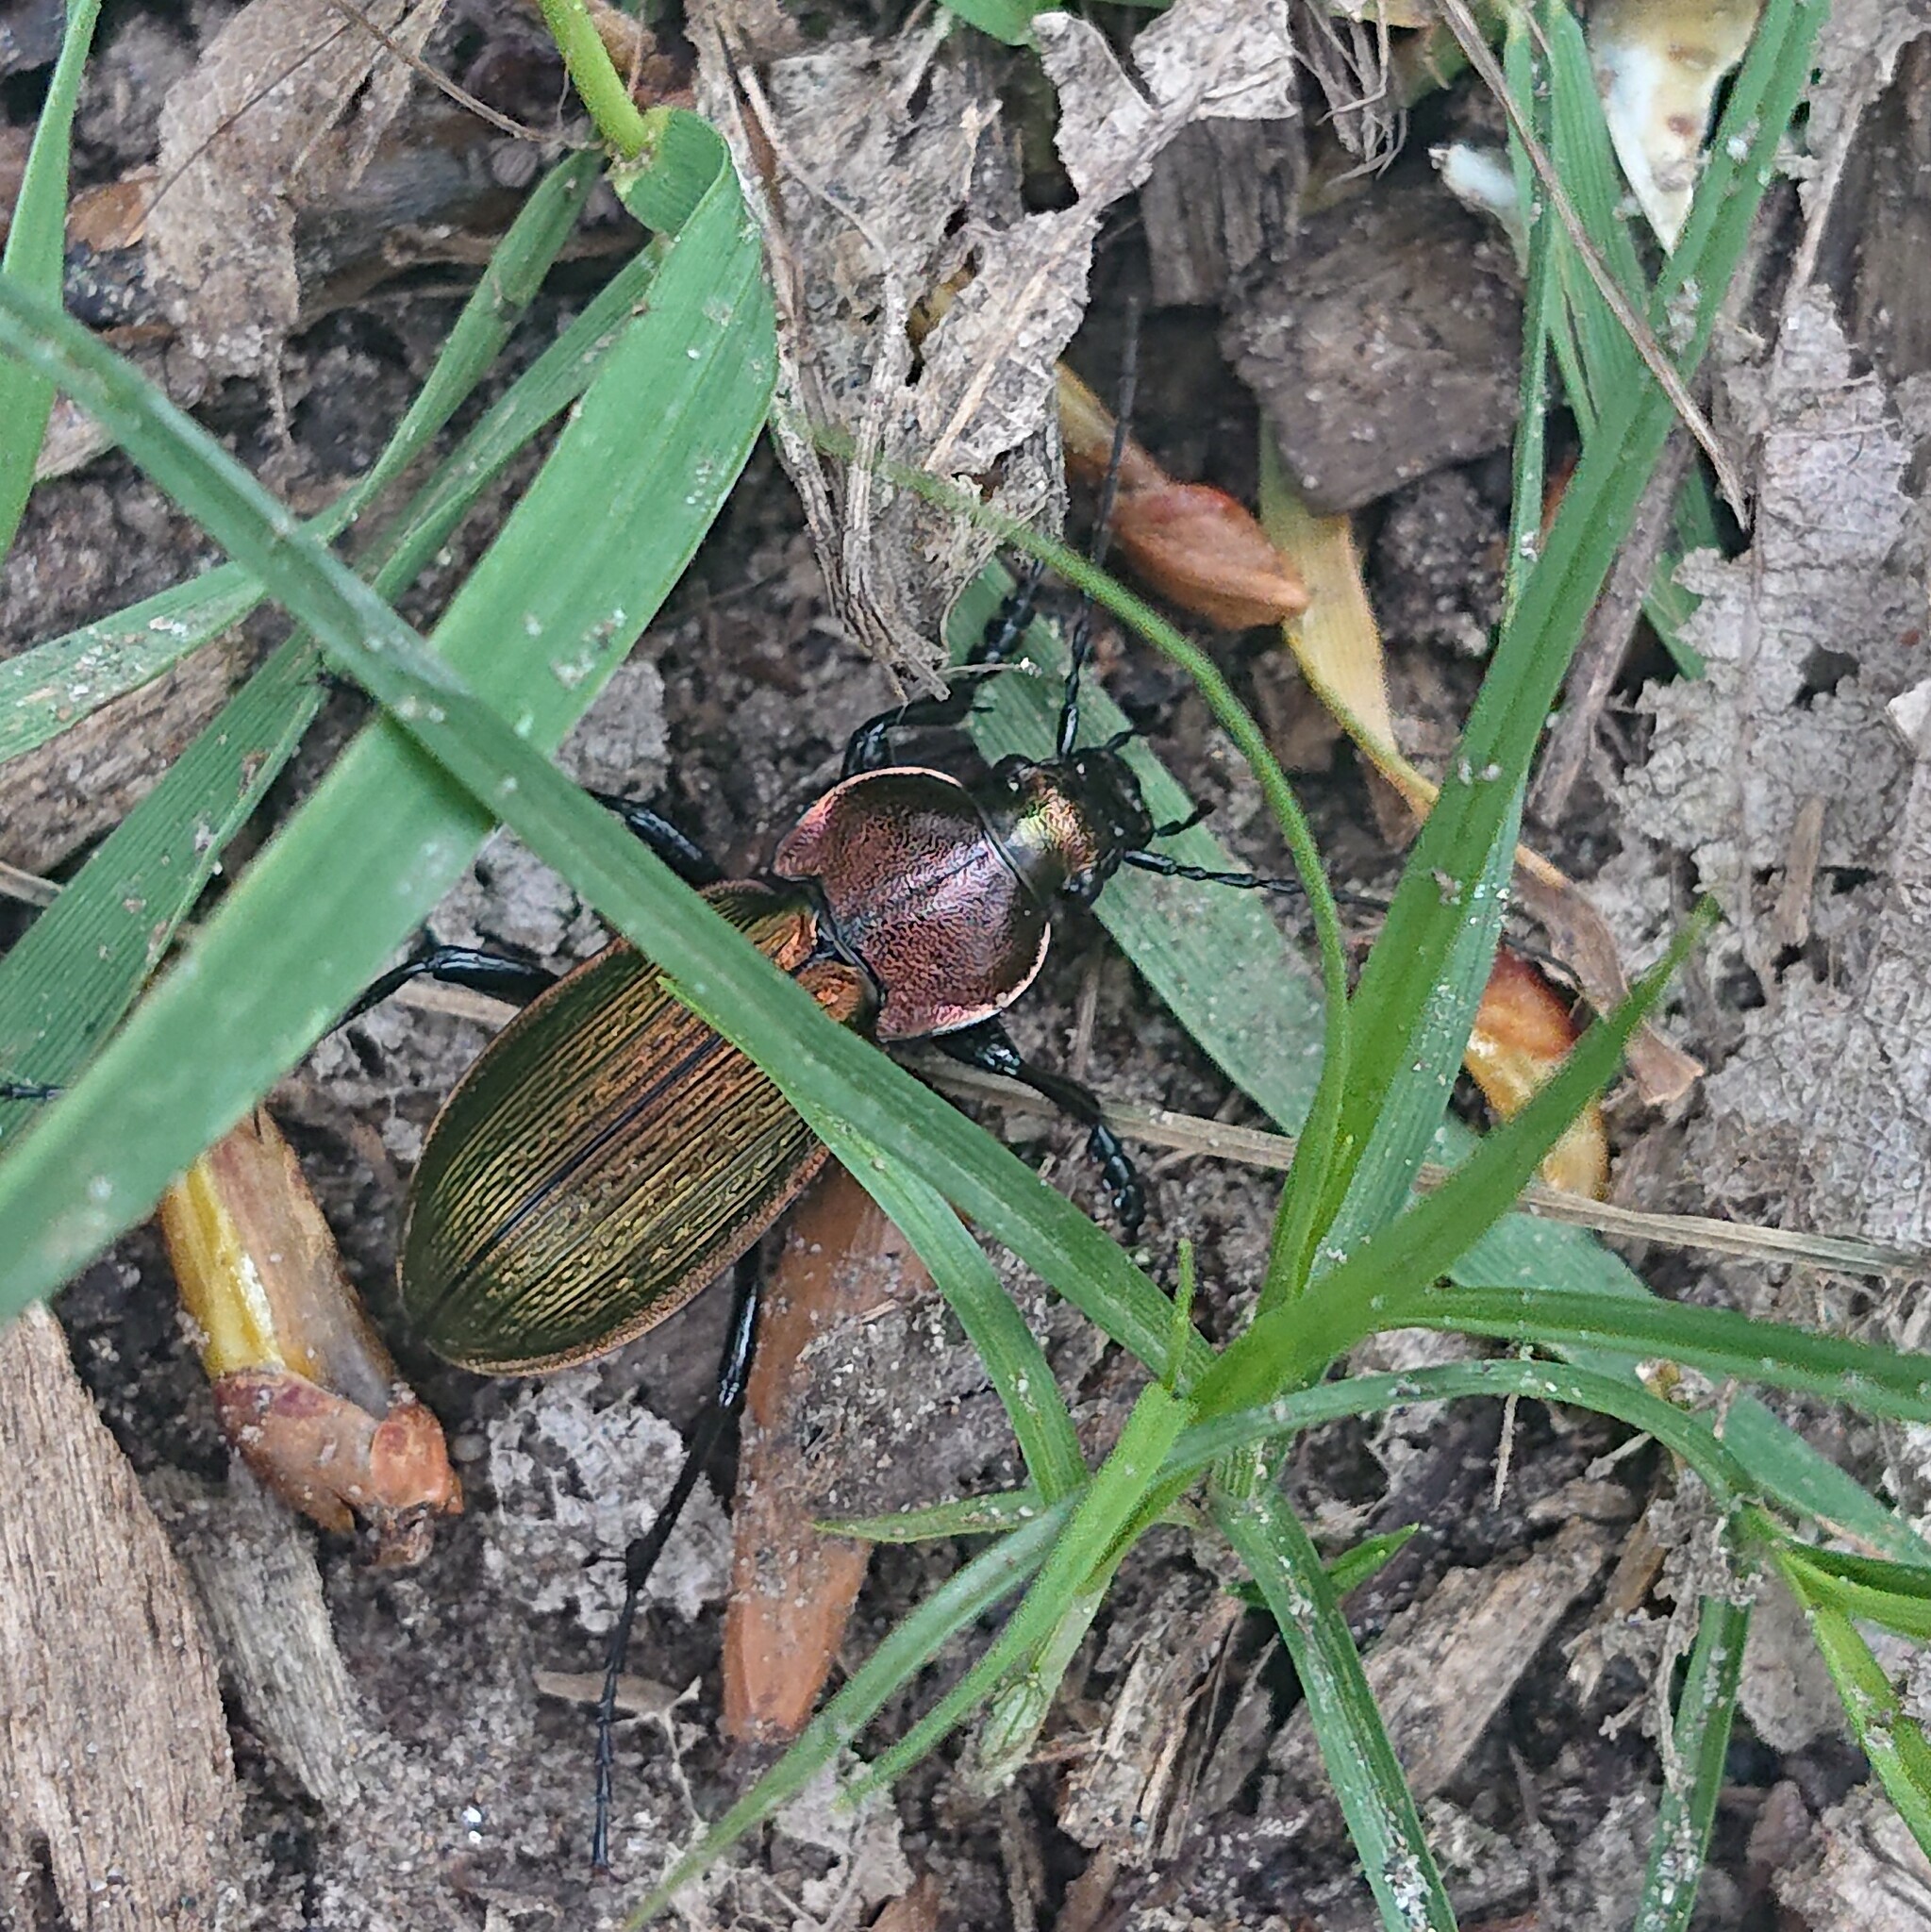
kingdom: Animalia
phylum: Arthropoda
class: Insecta
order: Coleoptera
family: Carabidae
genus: Carabus
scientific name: Carabus monilis
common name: Necklace ground beetle
